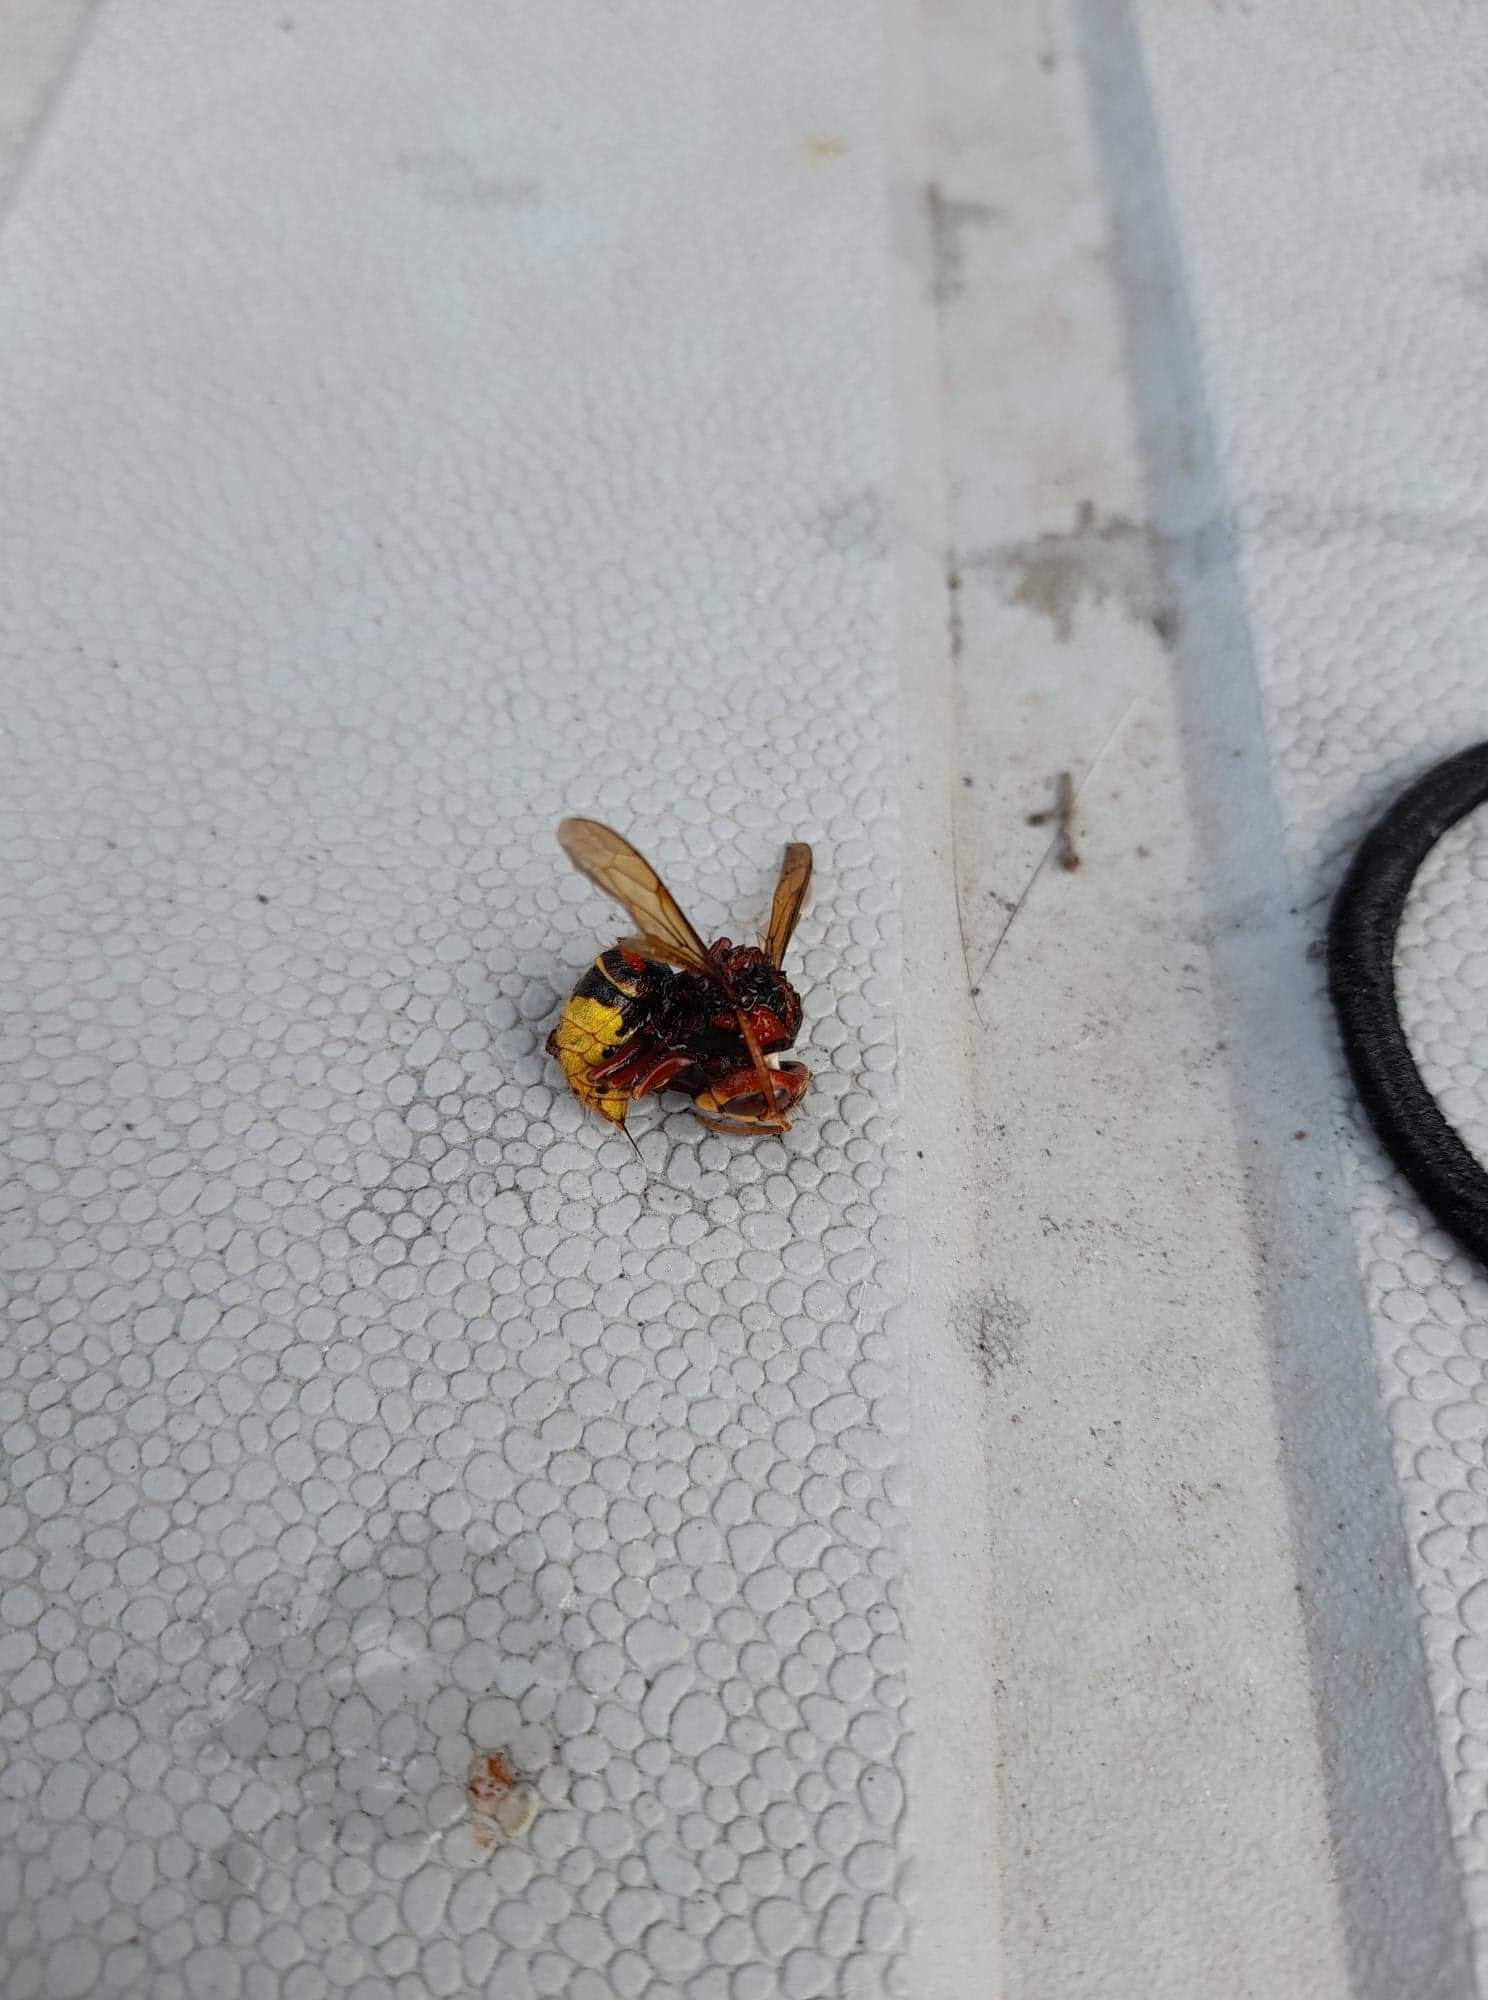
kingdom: Animalia
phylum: Arthropoda
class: Insecta
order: Hymenoptera
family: Vespidae
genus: Vespa
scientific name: Vespa crabro
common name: Hornet
